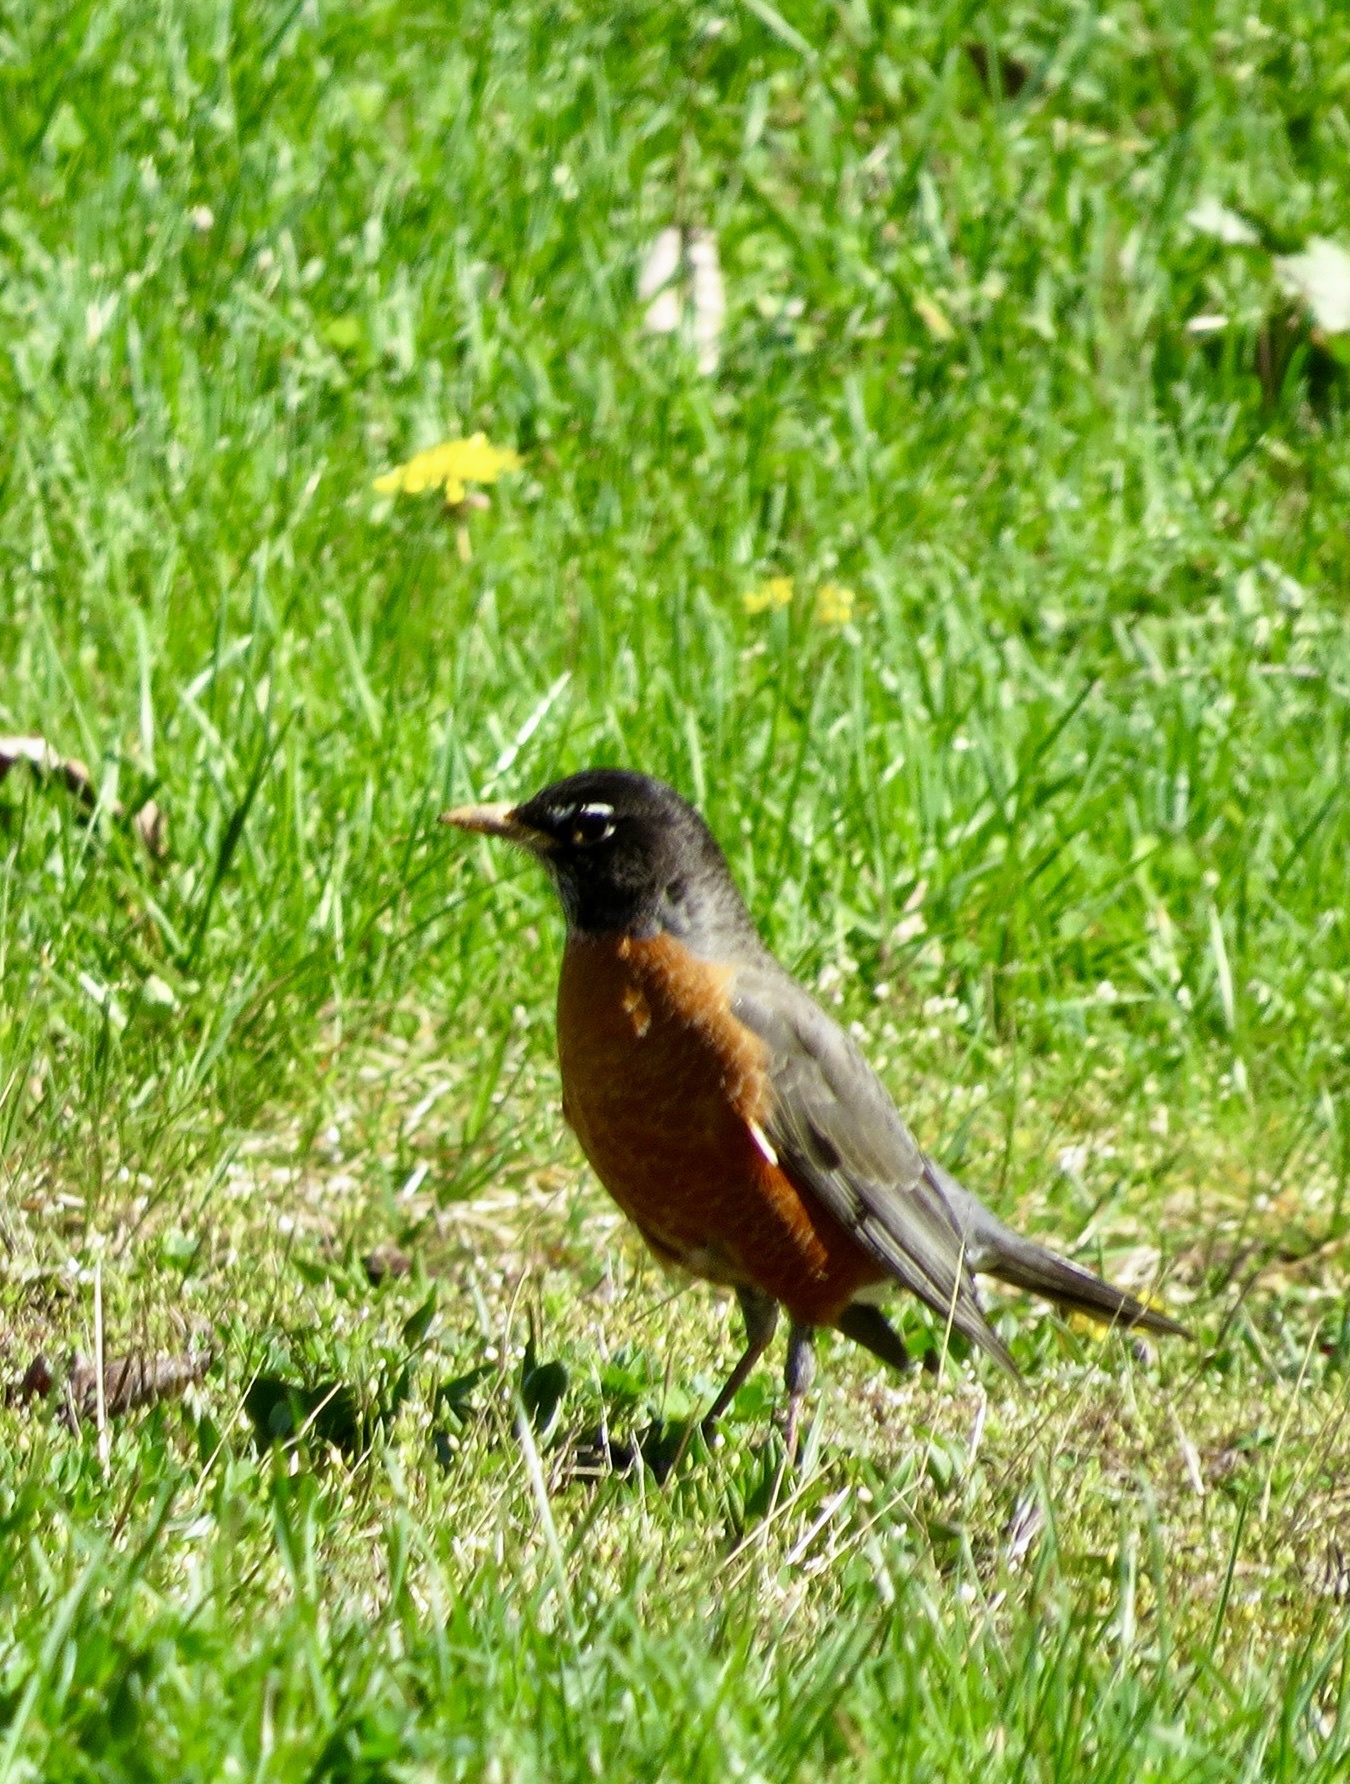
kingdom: Animalia
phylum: Chordata
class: Aves
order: Passeriformes
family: Turdidae
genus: Turdus
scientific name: Turdus migratorius
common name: American robin
